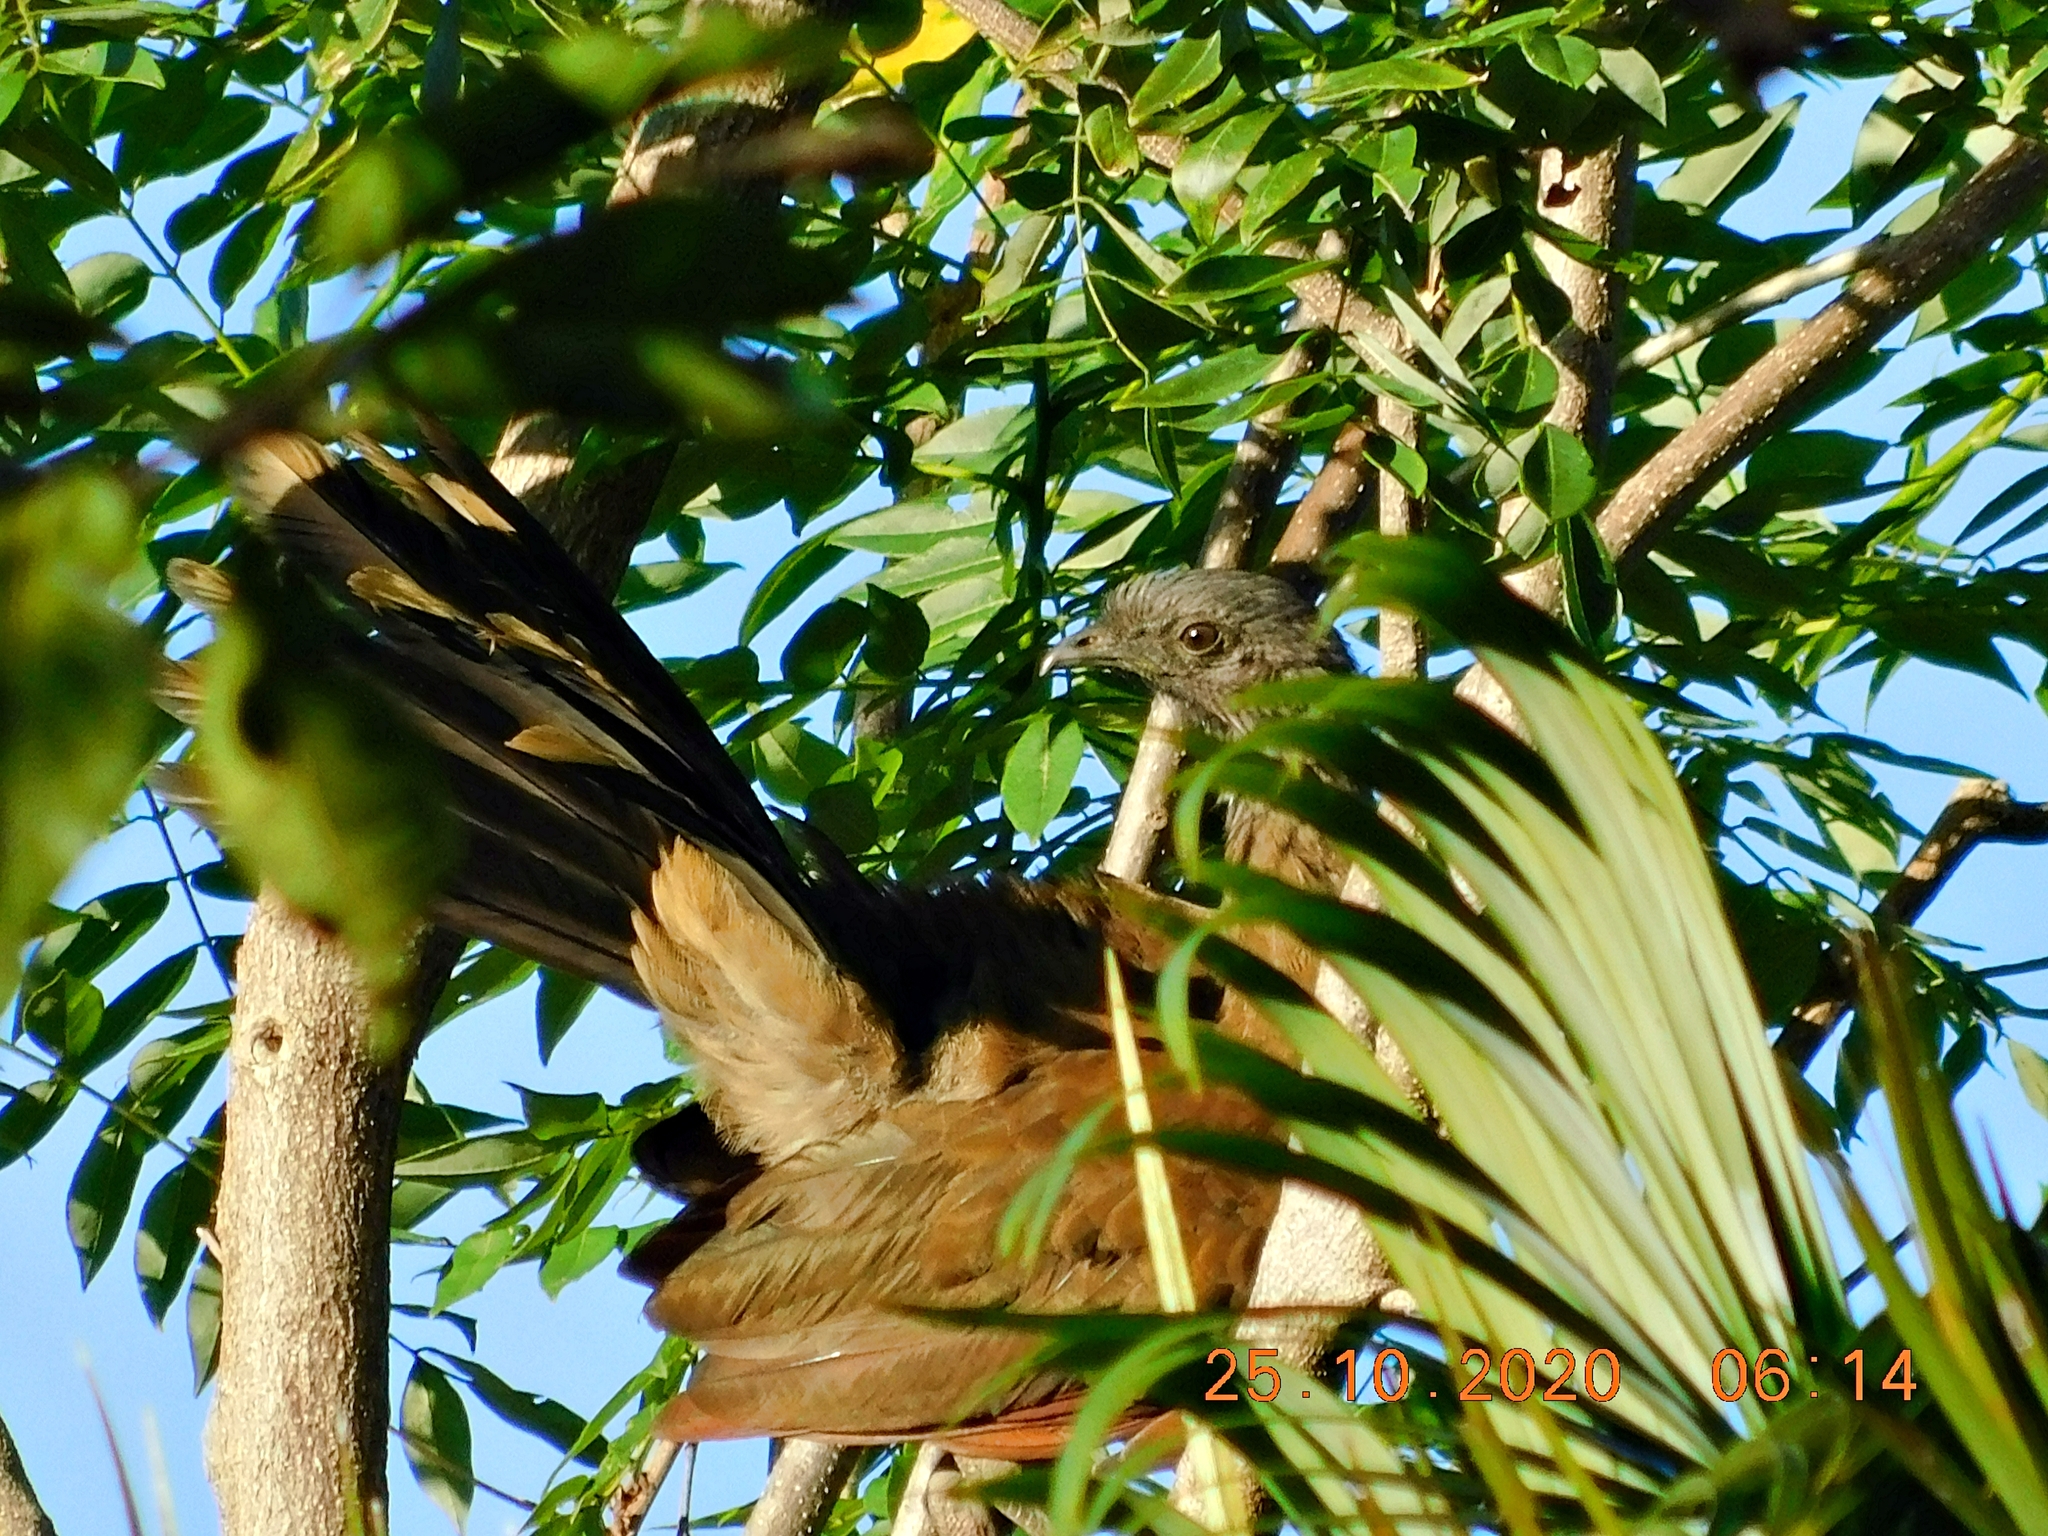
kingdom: Animalia
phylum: Chordata
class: Aves
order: Galliformes
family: Cracidae
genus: Ortalis
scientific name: Ortalis cinereiceps
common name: Grey-headed chachalaca
